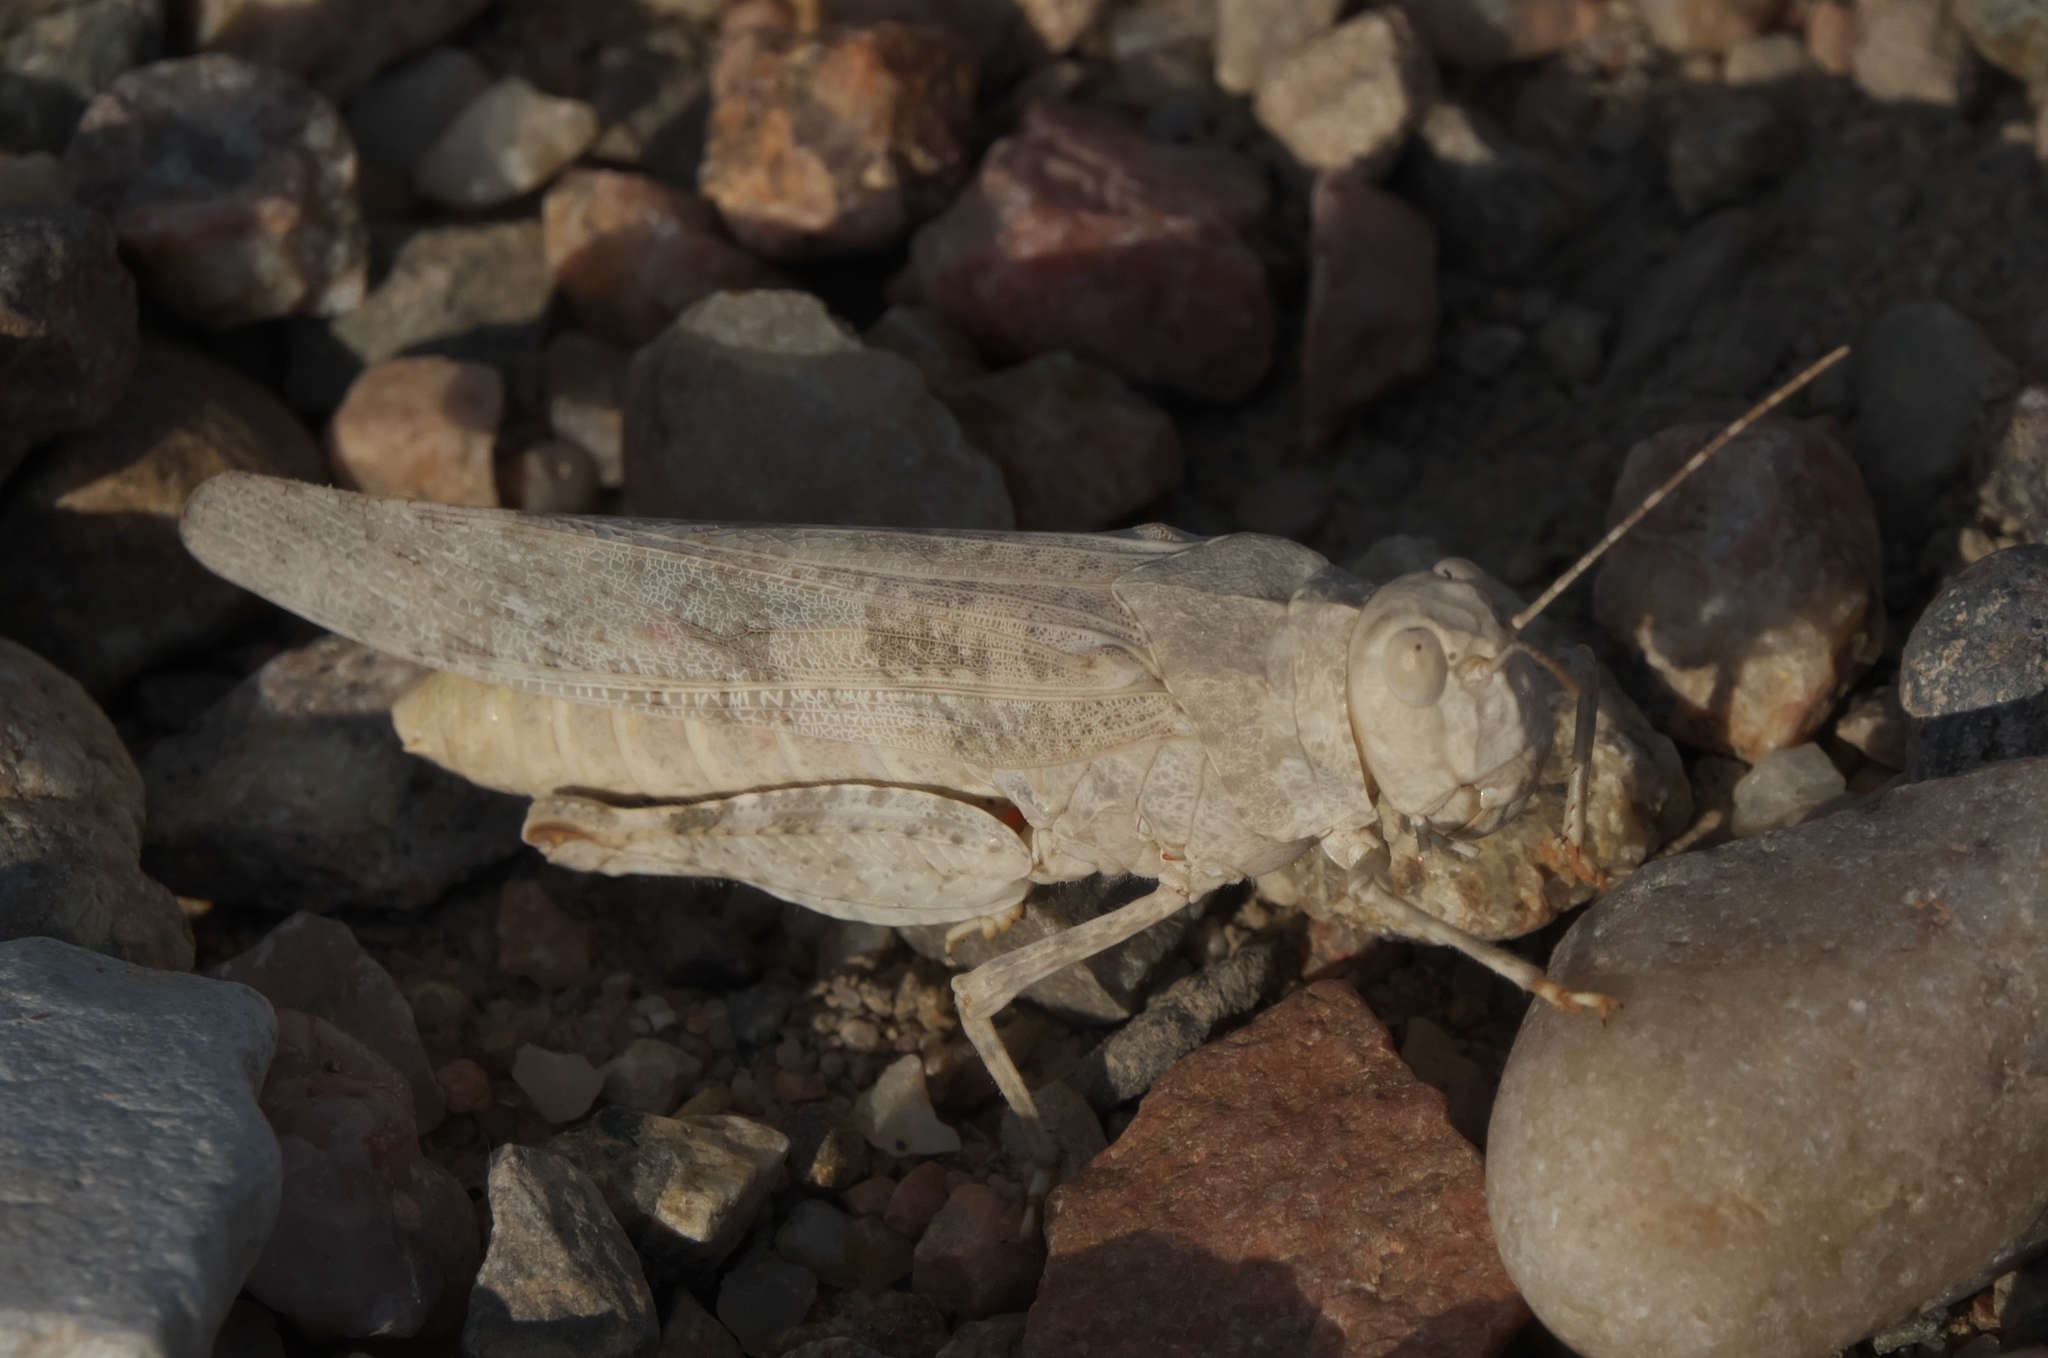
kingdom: Animalia
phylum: Arthropoda
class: Insecta
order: Orthoptera
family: Acrididae
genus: Trimerotropis
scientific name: Trimerotropis maritima
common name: Seaside locust
